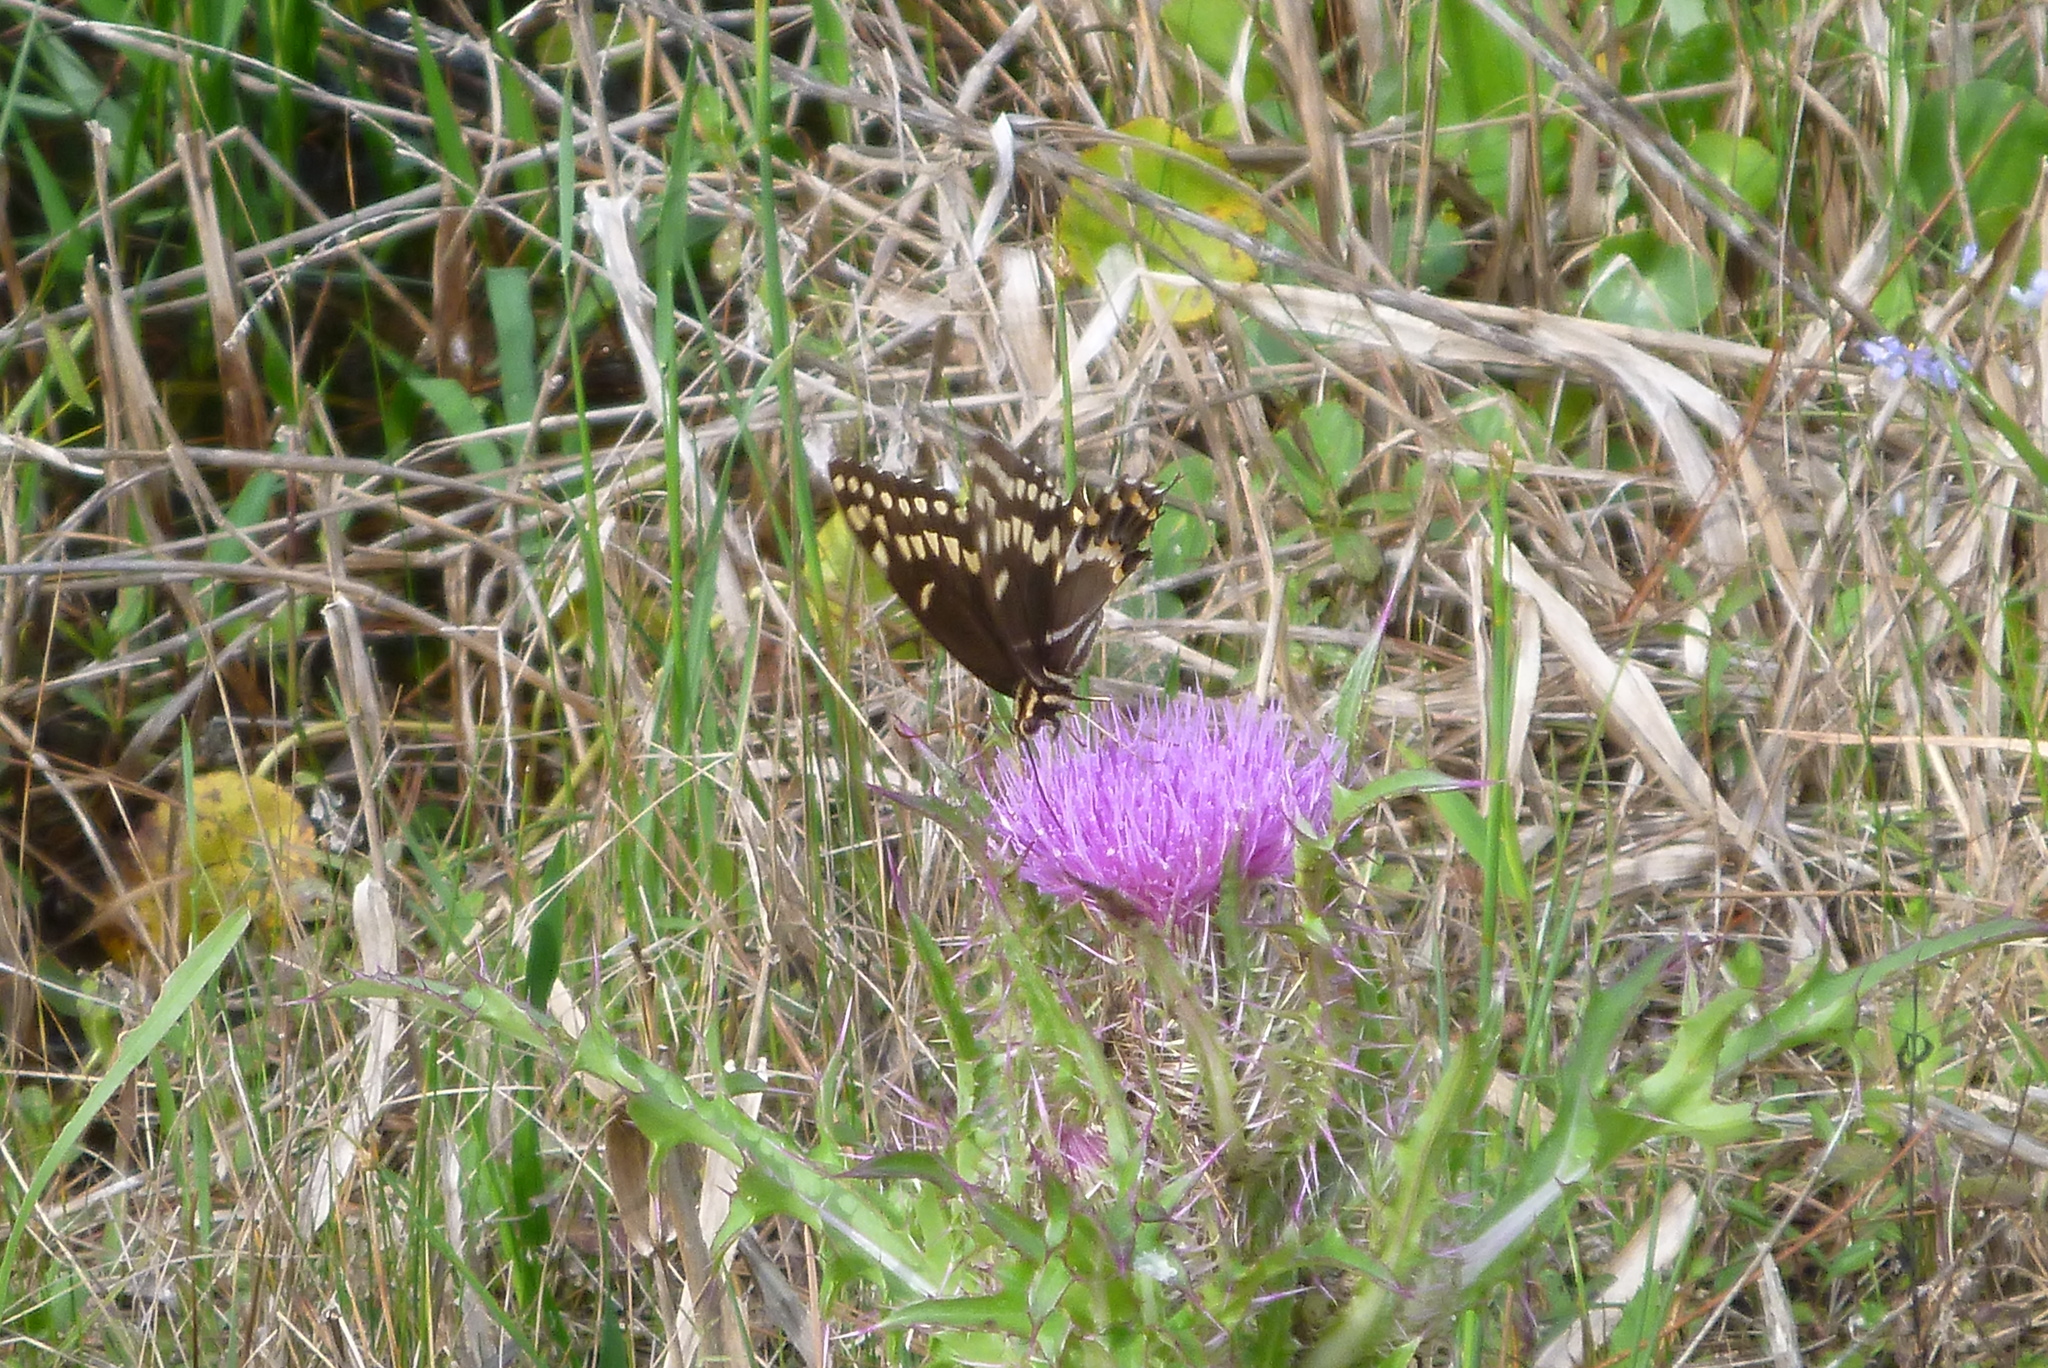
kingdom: Animalia
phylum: Arthropoda
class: Insecta
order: Lepidoptera
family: Papilionidae
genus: Papilio
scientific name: Papilio palamedes
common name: Palamedes swallowtail
